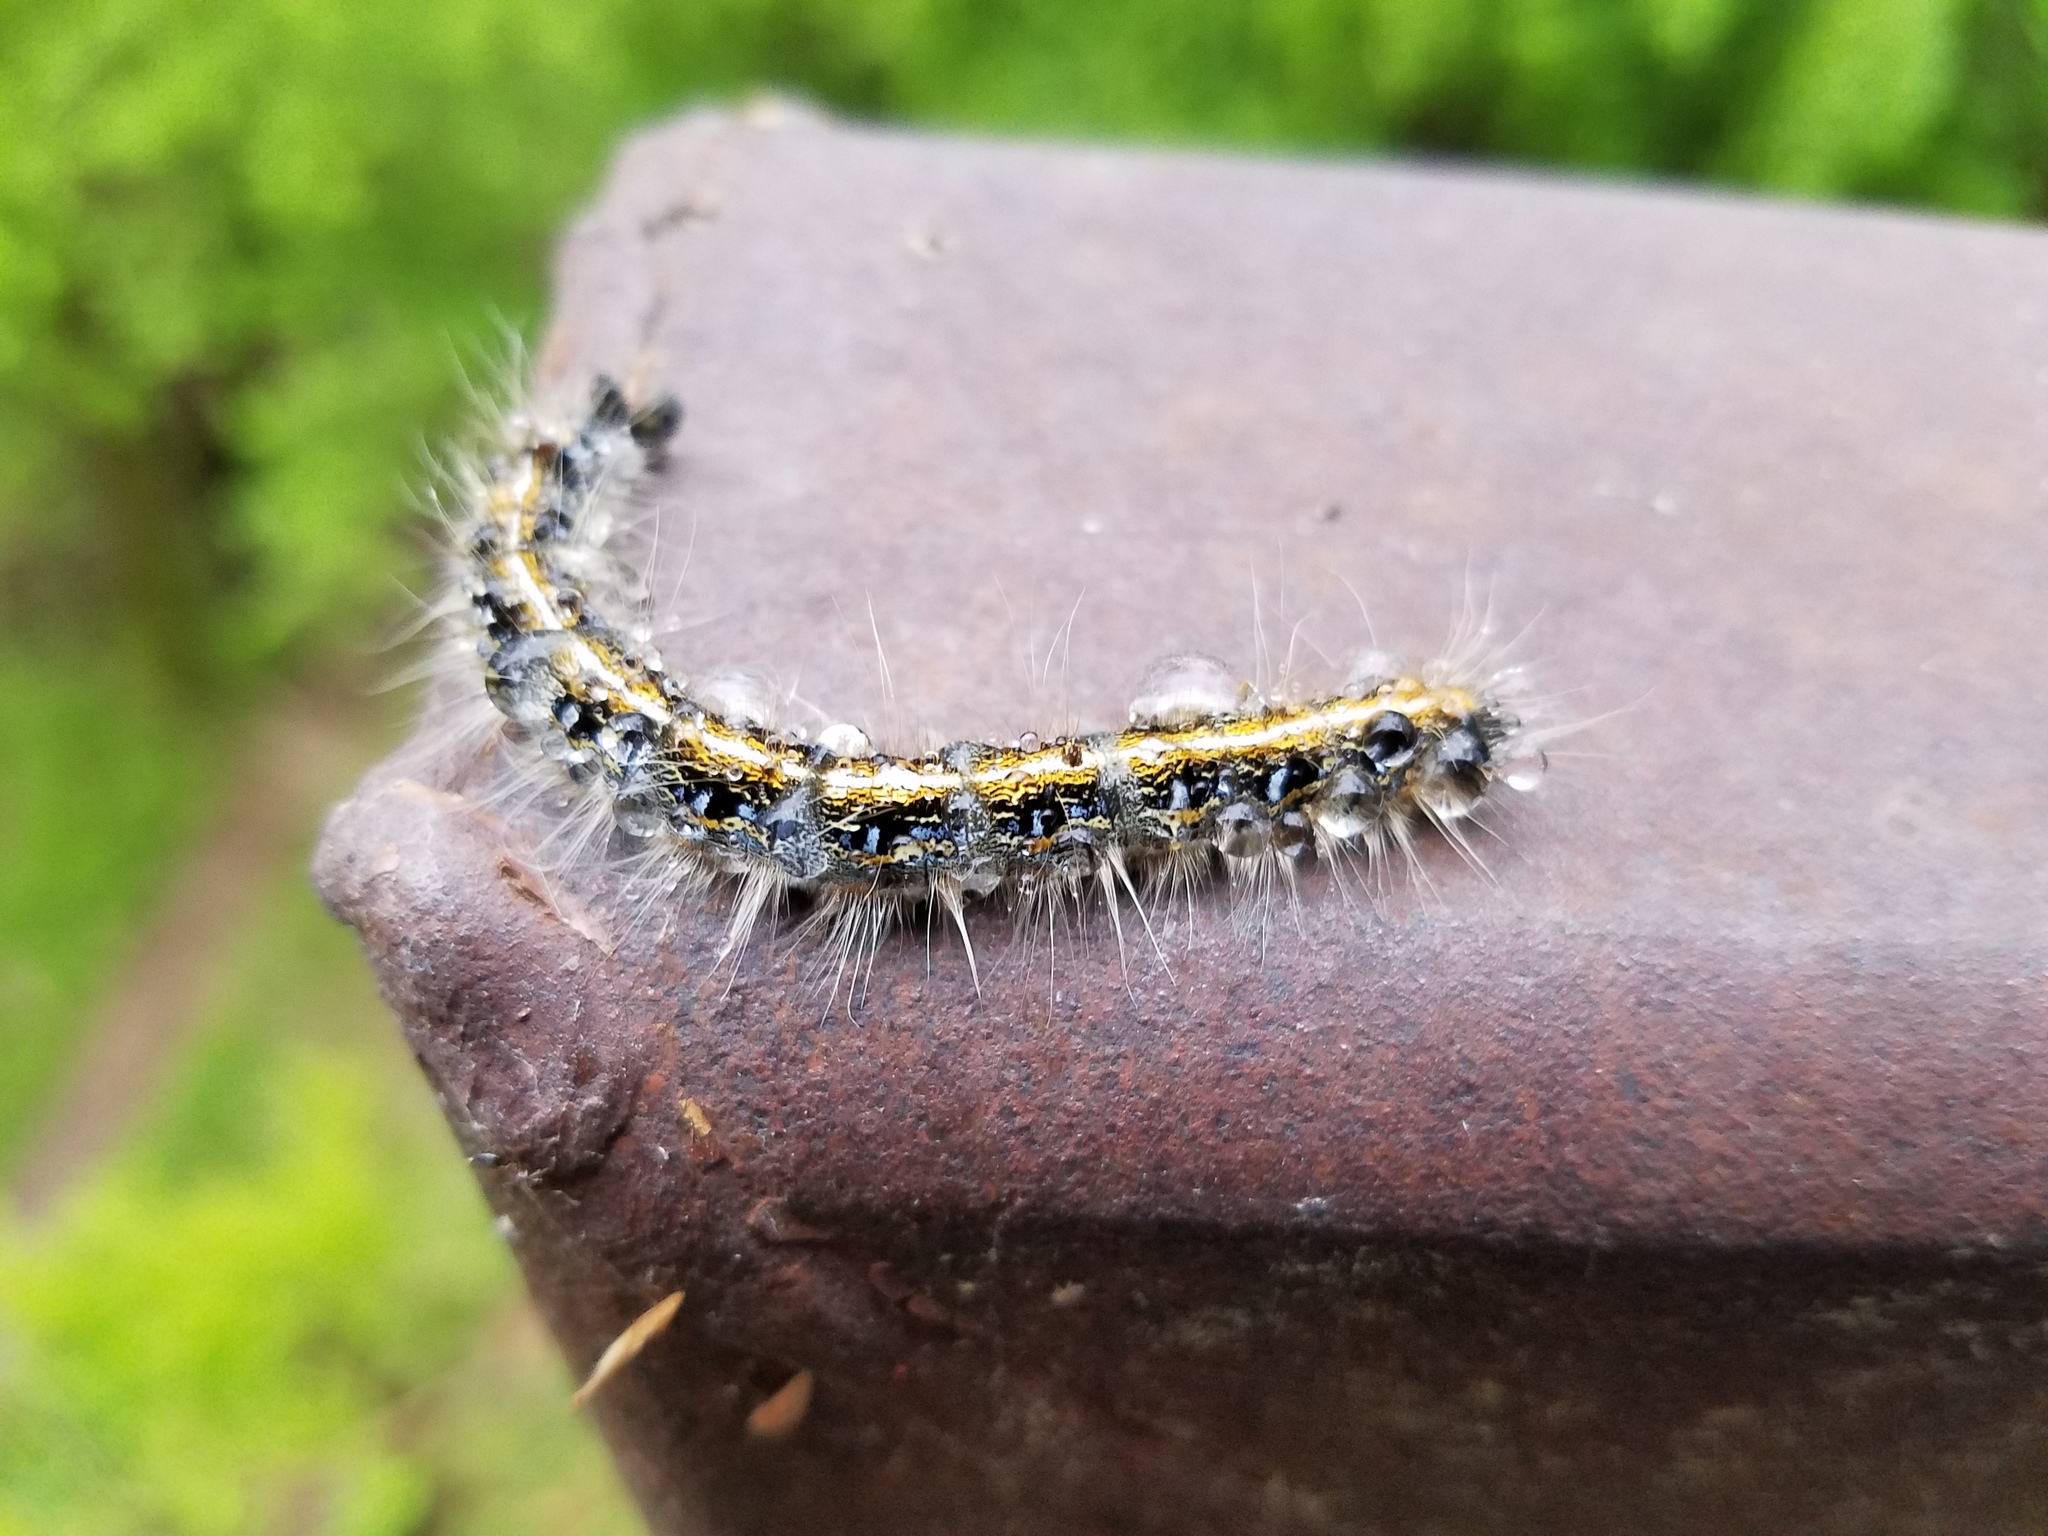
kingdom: Animalia
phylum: Arthropoda
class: Insecta
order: Lepidoptera
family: Lasiocampidae
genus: Malacosoma
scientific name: Malacosoma americana
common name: Eastern tent caterpillar moth
